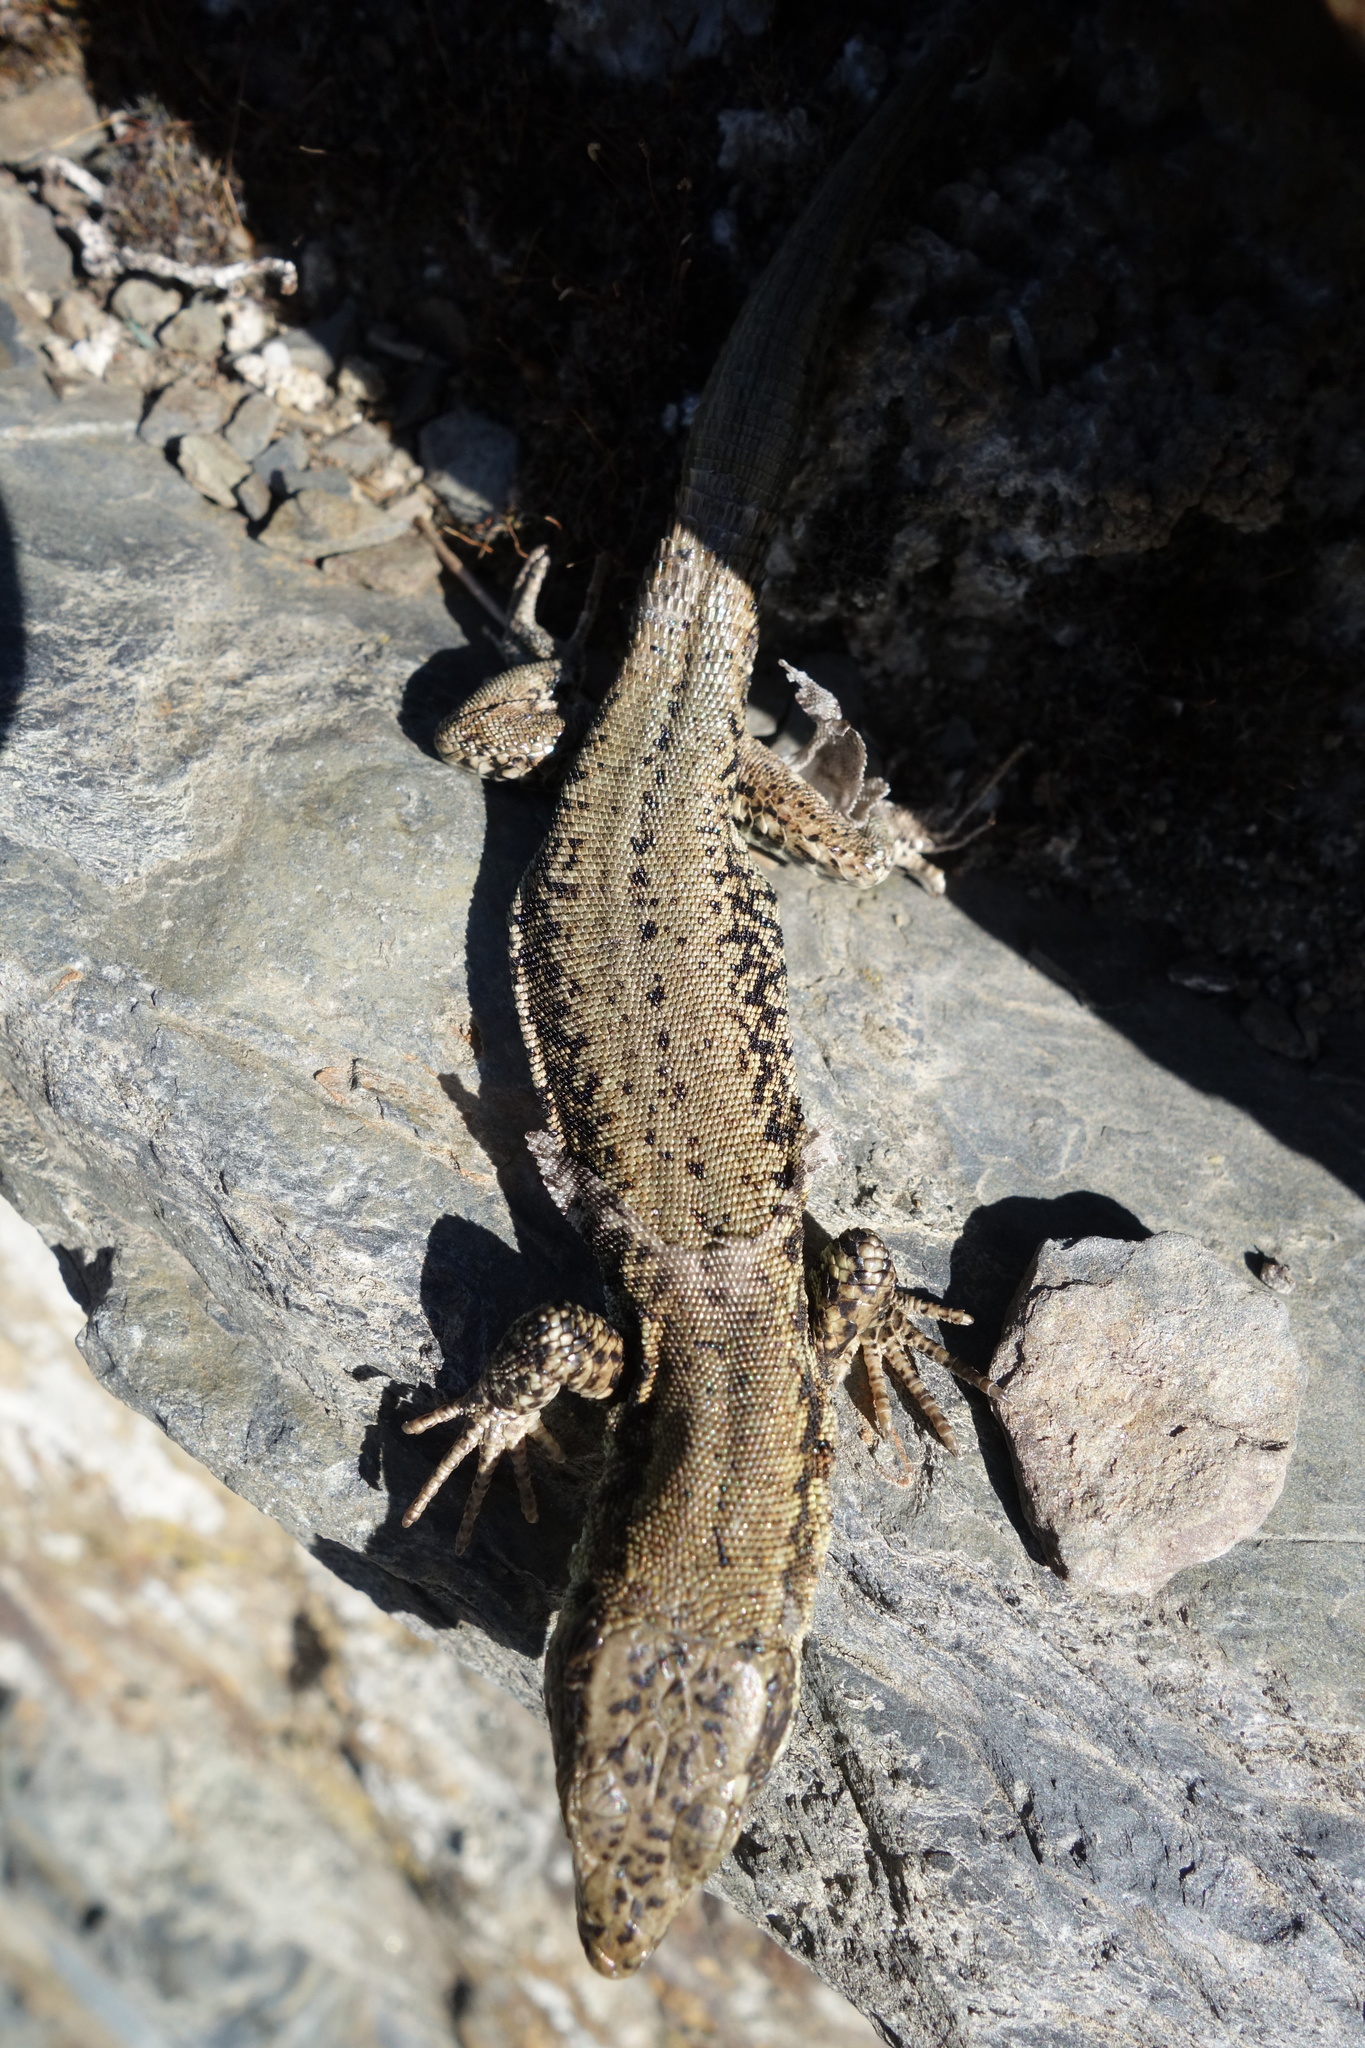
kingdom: Animalia
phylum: Chordata
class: Squamata
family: Lacertidae
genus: Podarcis
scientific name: Podarcis muralis
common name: Common wall lizard
